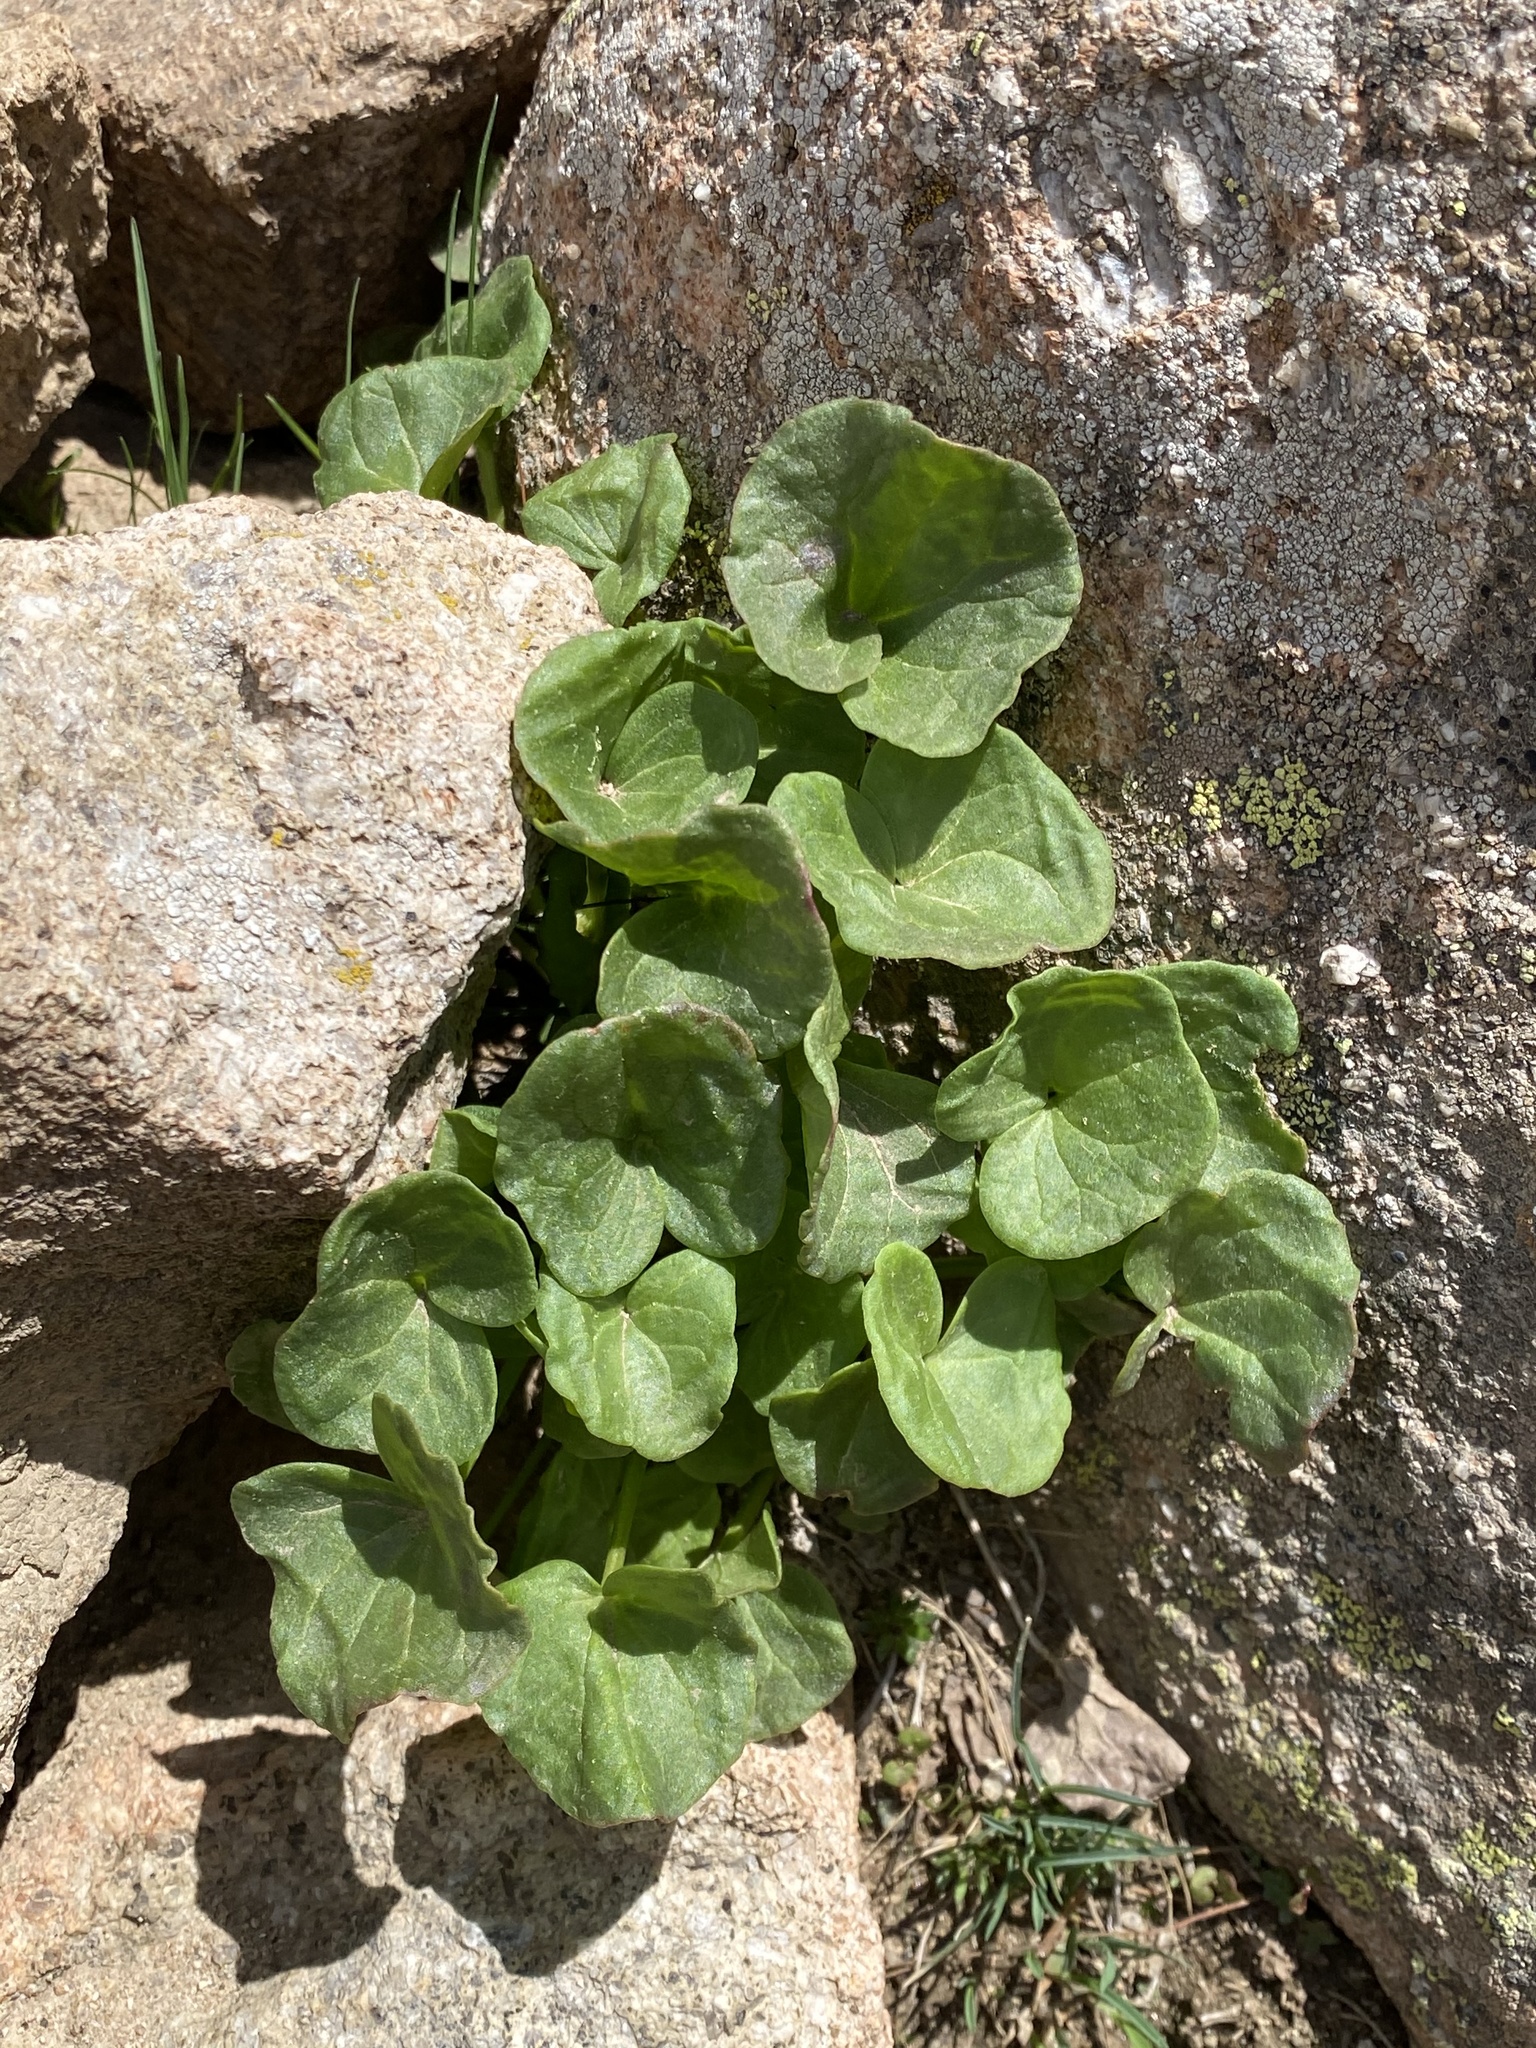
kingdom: Plantae
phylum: Tracheophyta
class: Magnoliopsida
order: Caryophyllales
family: Polygonaceae
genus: Oxyria
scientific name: Oxyria digyna
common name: Alpine mountain-sorrel
